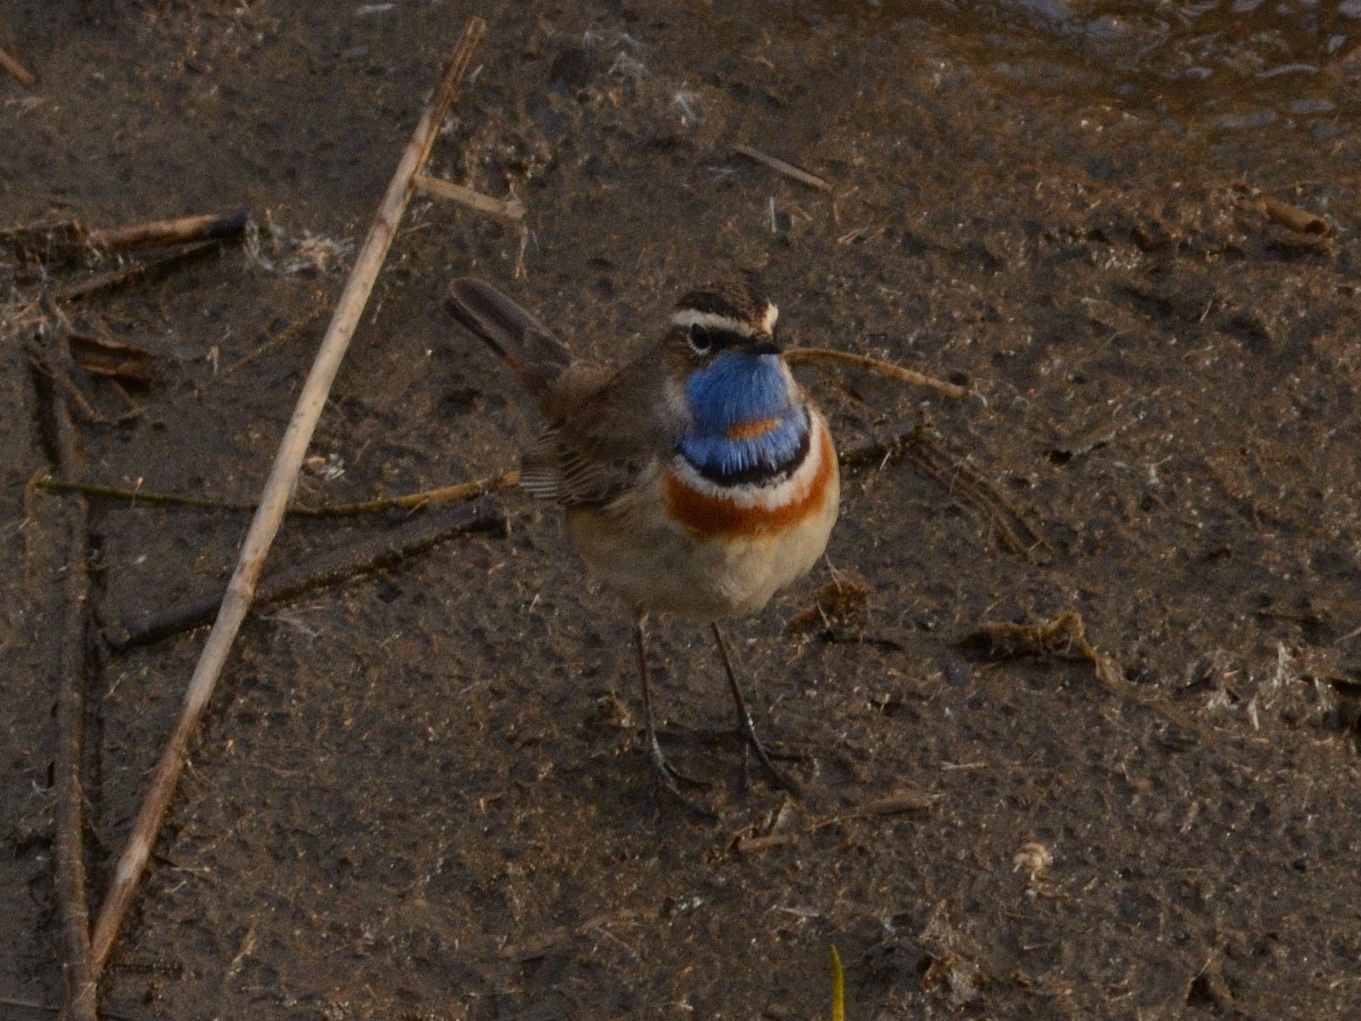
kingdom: Animalia
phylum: Chordata
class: Aves
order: Passeriformes
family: Muscicapidae
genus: Luscinia
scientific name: Luscinia svecica
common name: Bluethroat
